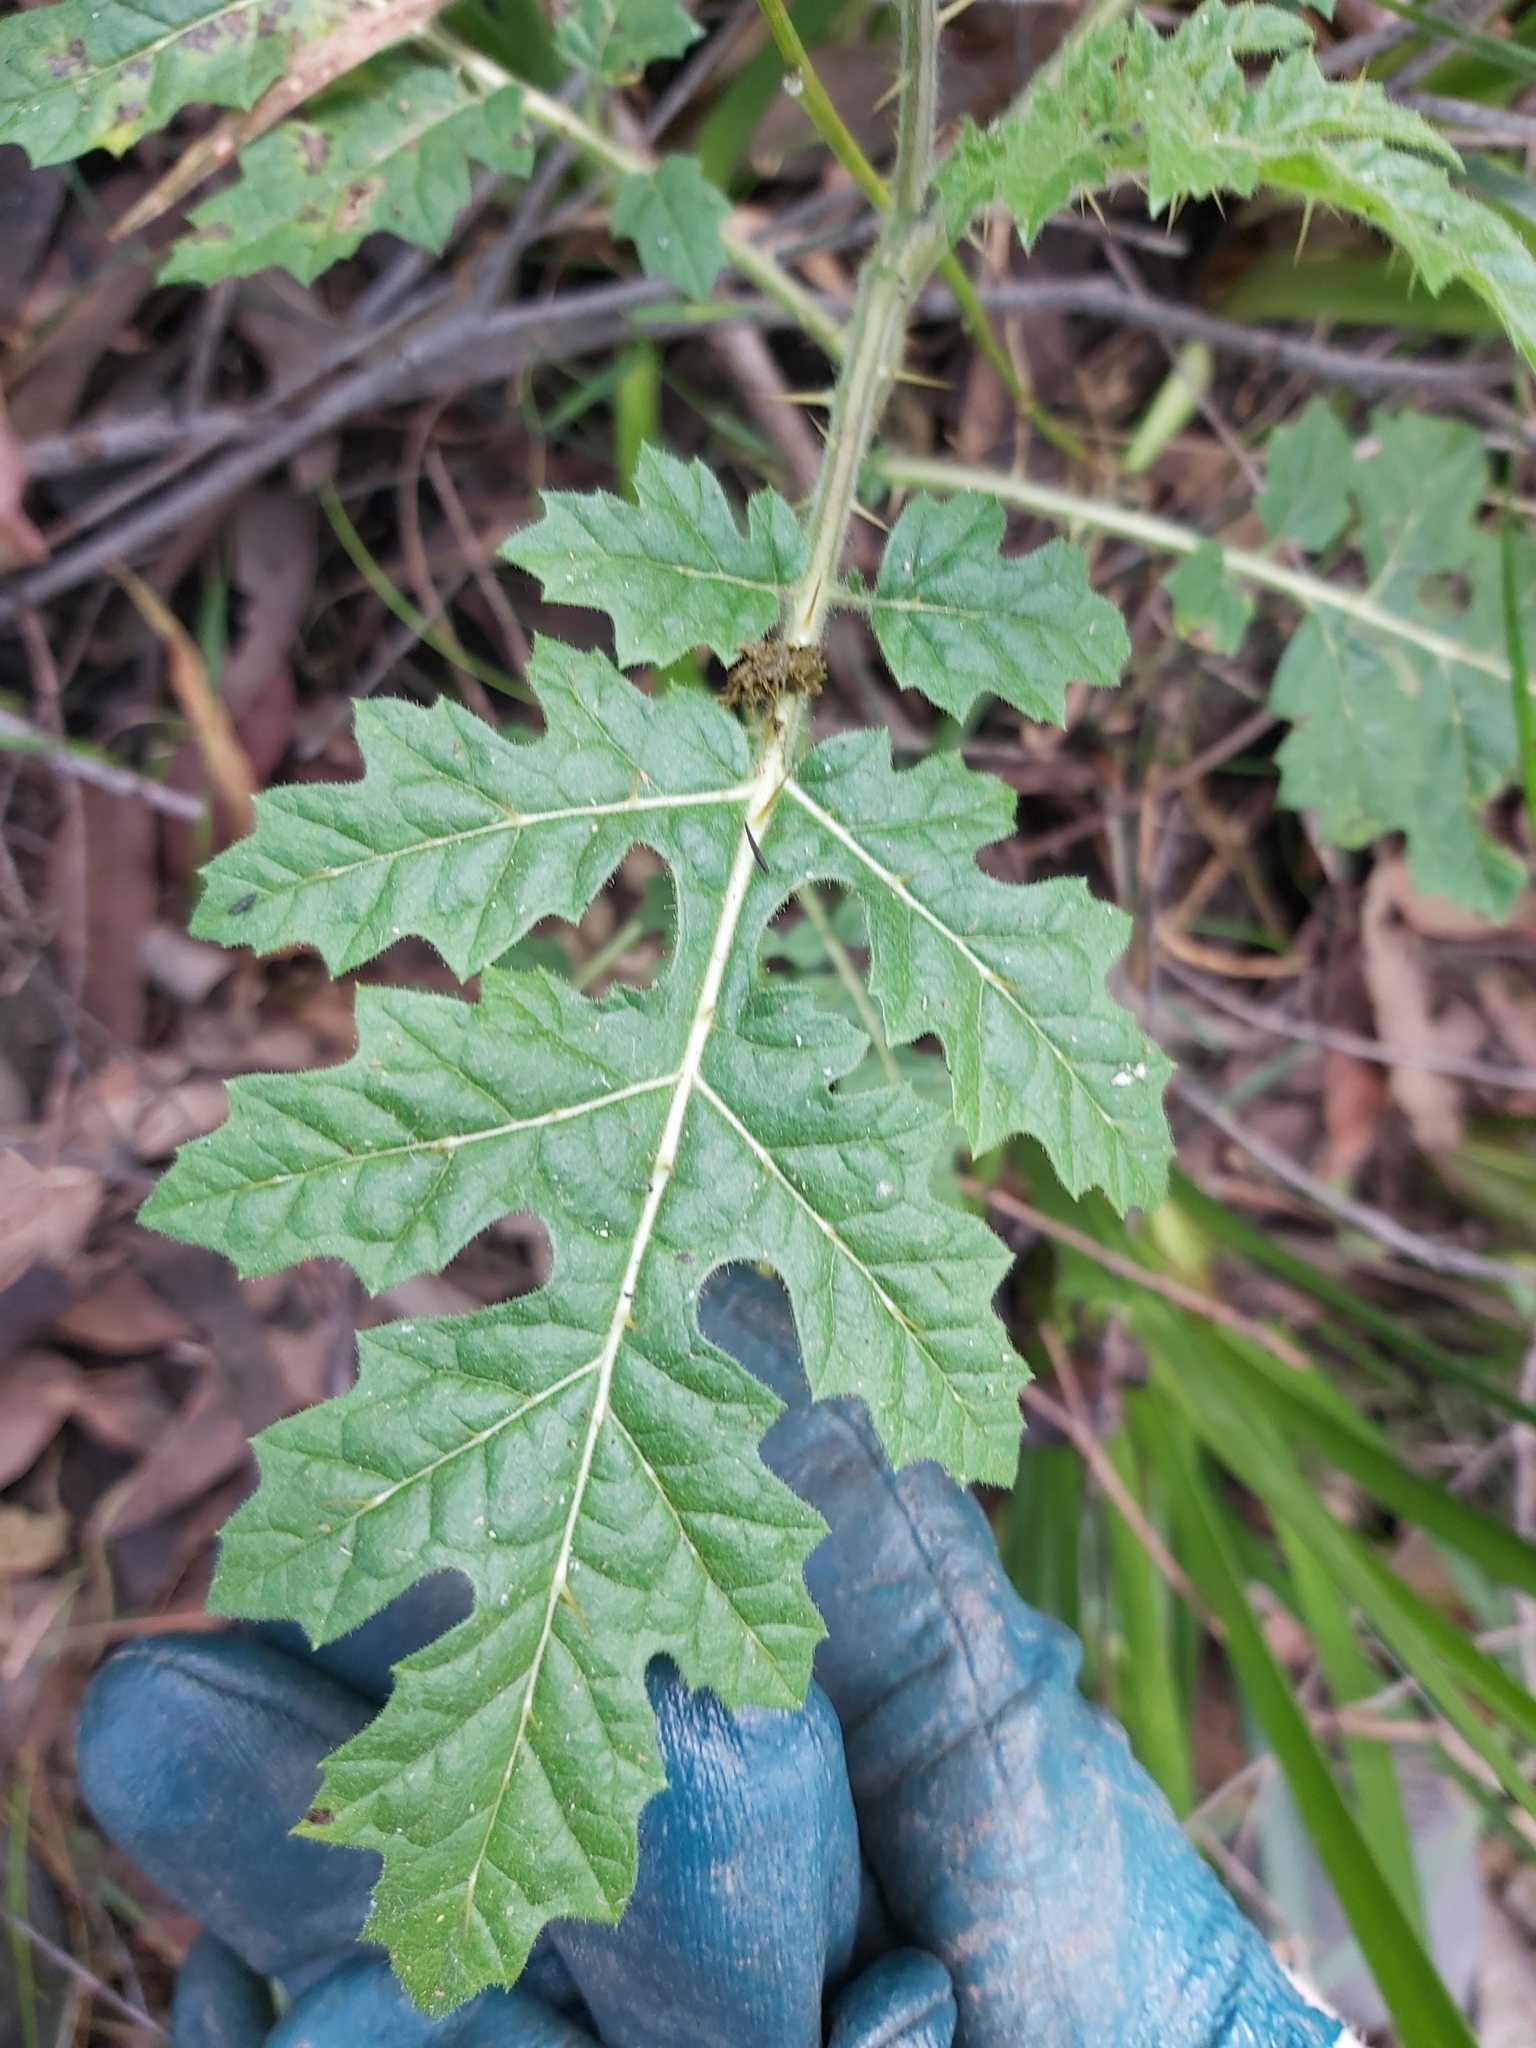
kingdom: Plantae
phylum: Tracheophyta
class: Magnoliopsida
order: Solanales
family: Solanaceae
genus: Solanum
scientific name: Solanum sisymbriifolium
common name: Red buffalo-bur
